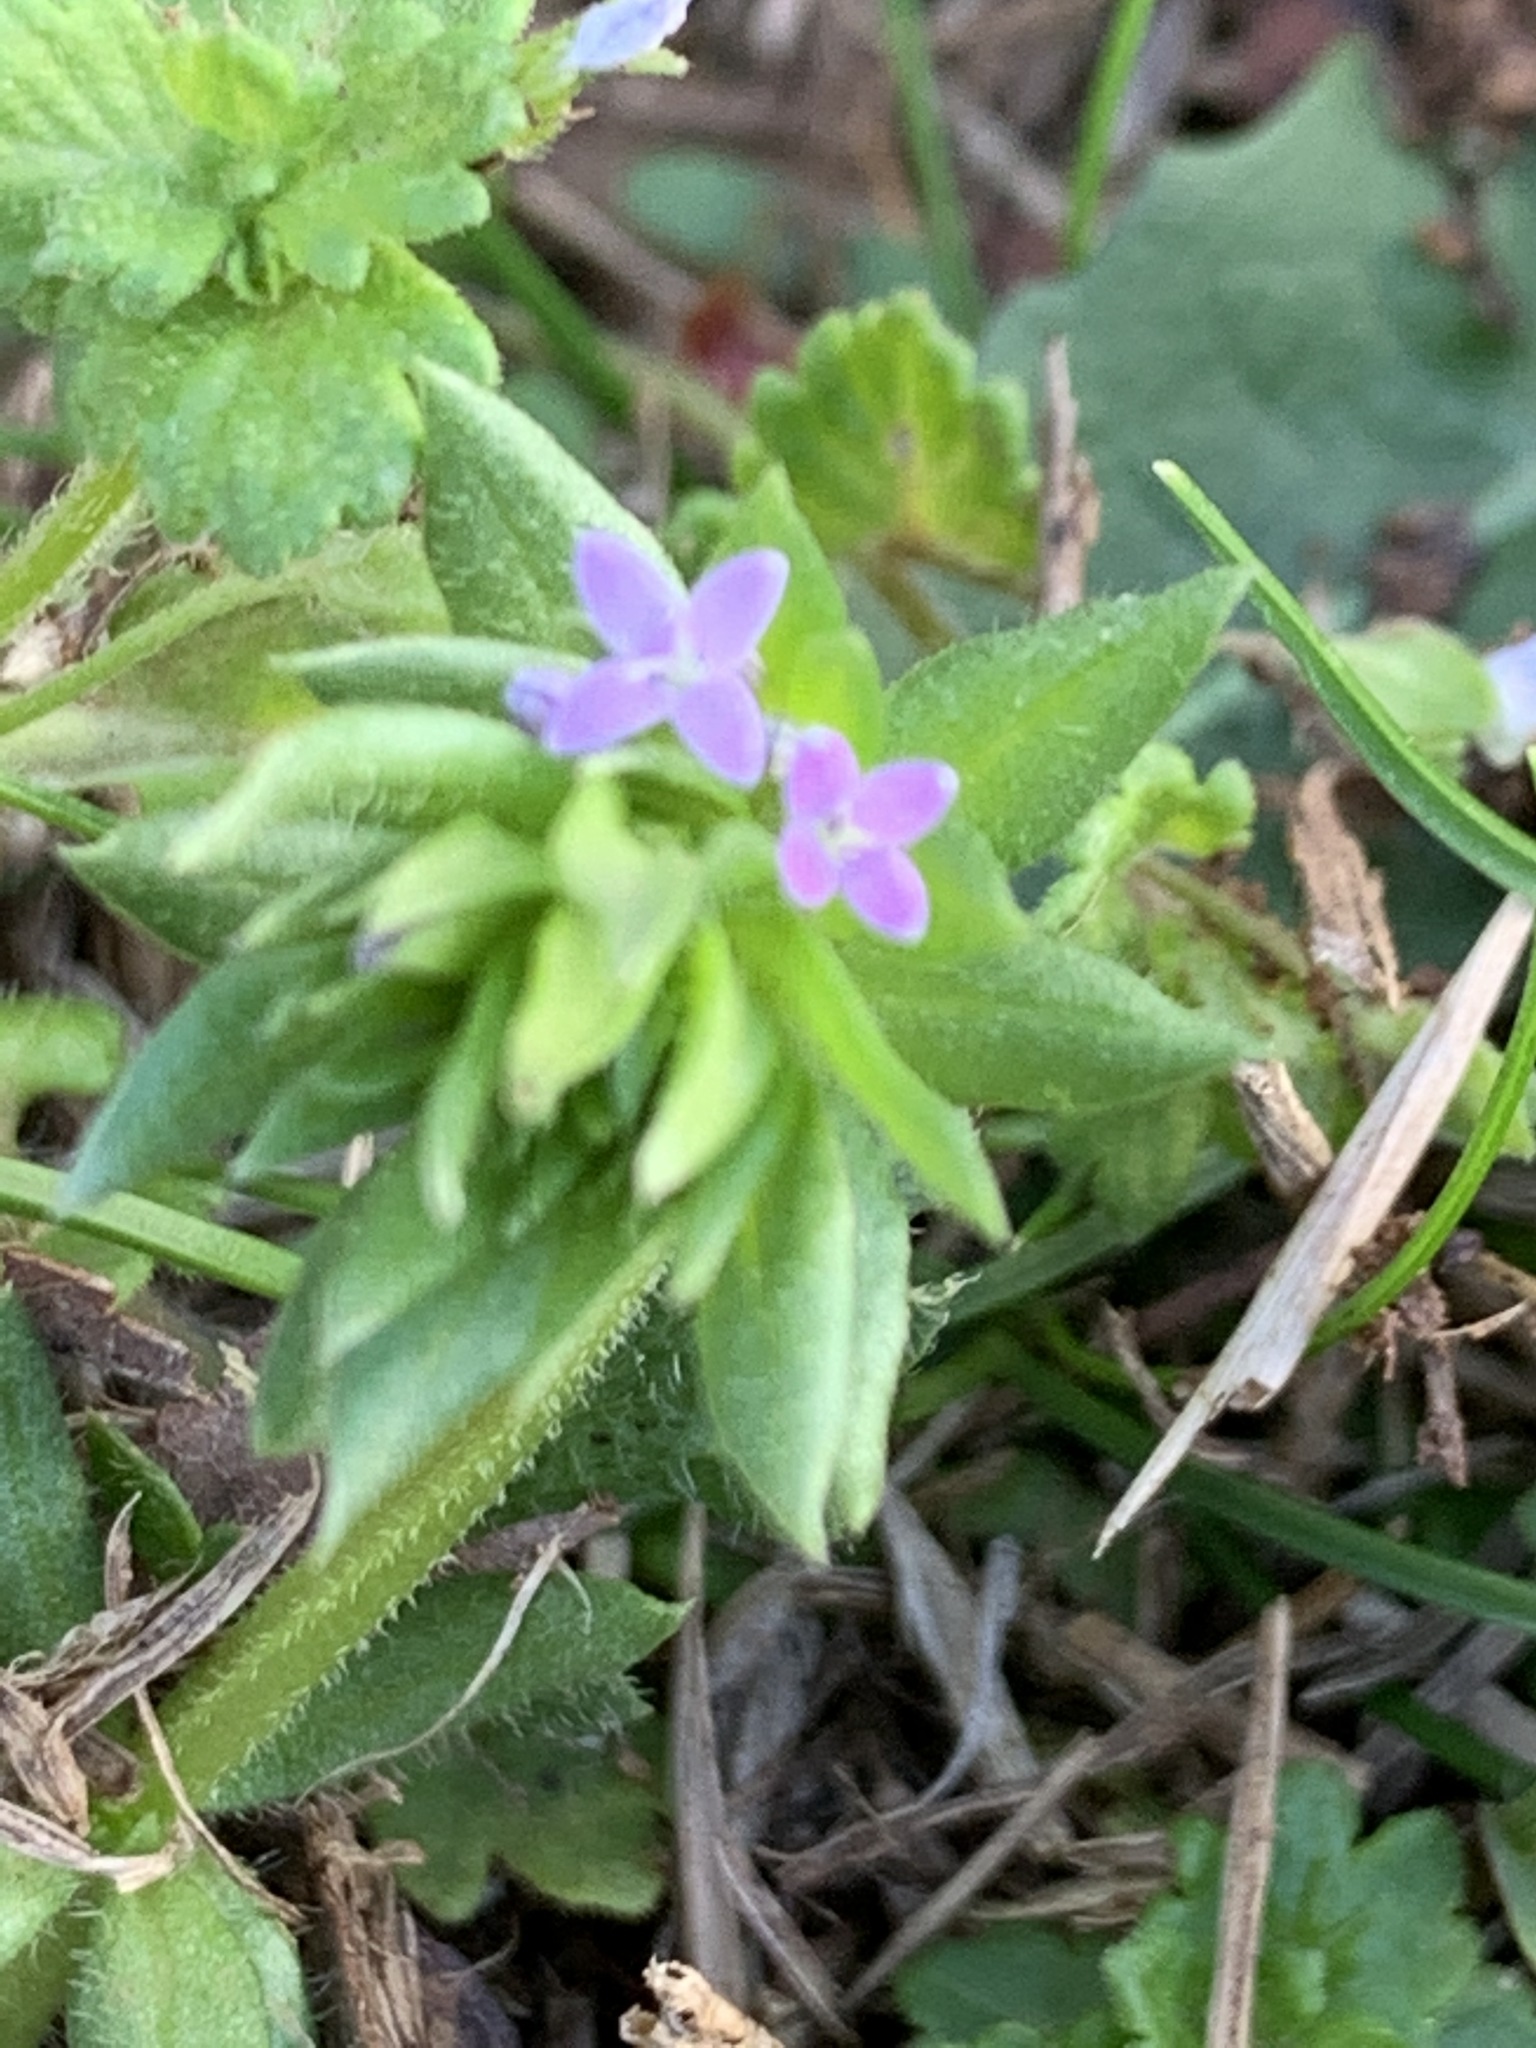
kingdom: Plantae
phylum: Tracheophyta
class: Magnoliopsida
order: Gentianales
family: Rubiaceae
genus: Sherardia
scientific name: Sherardia arvensis
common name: Field madder
